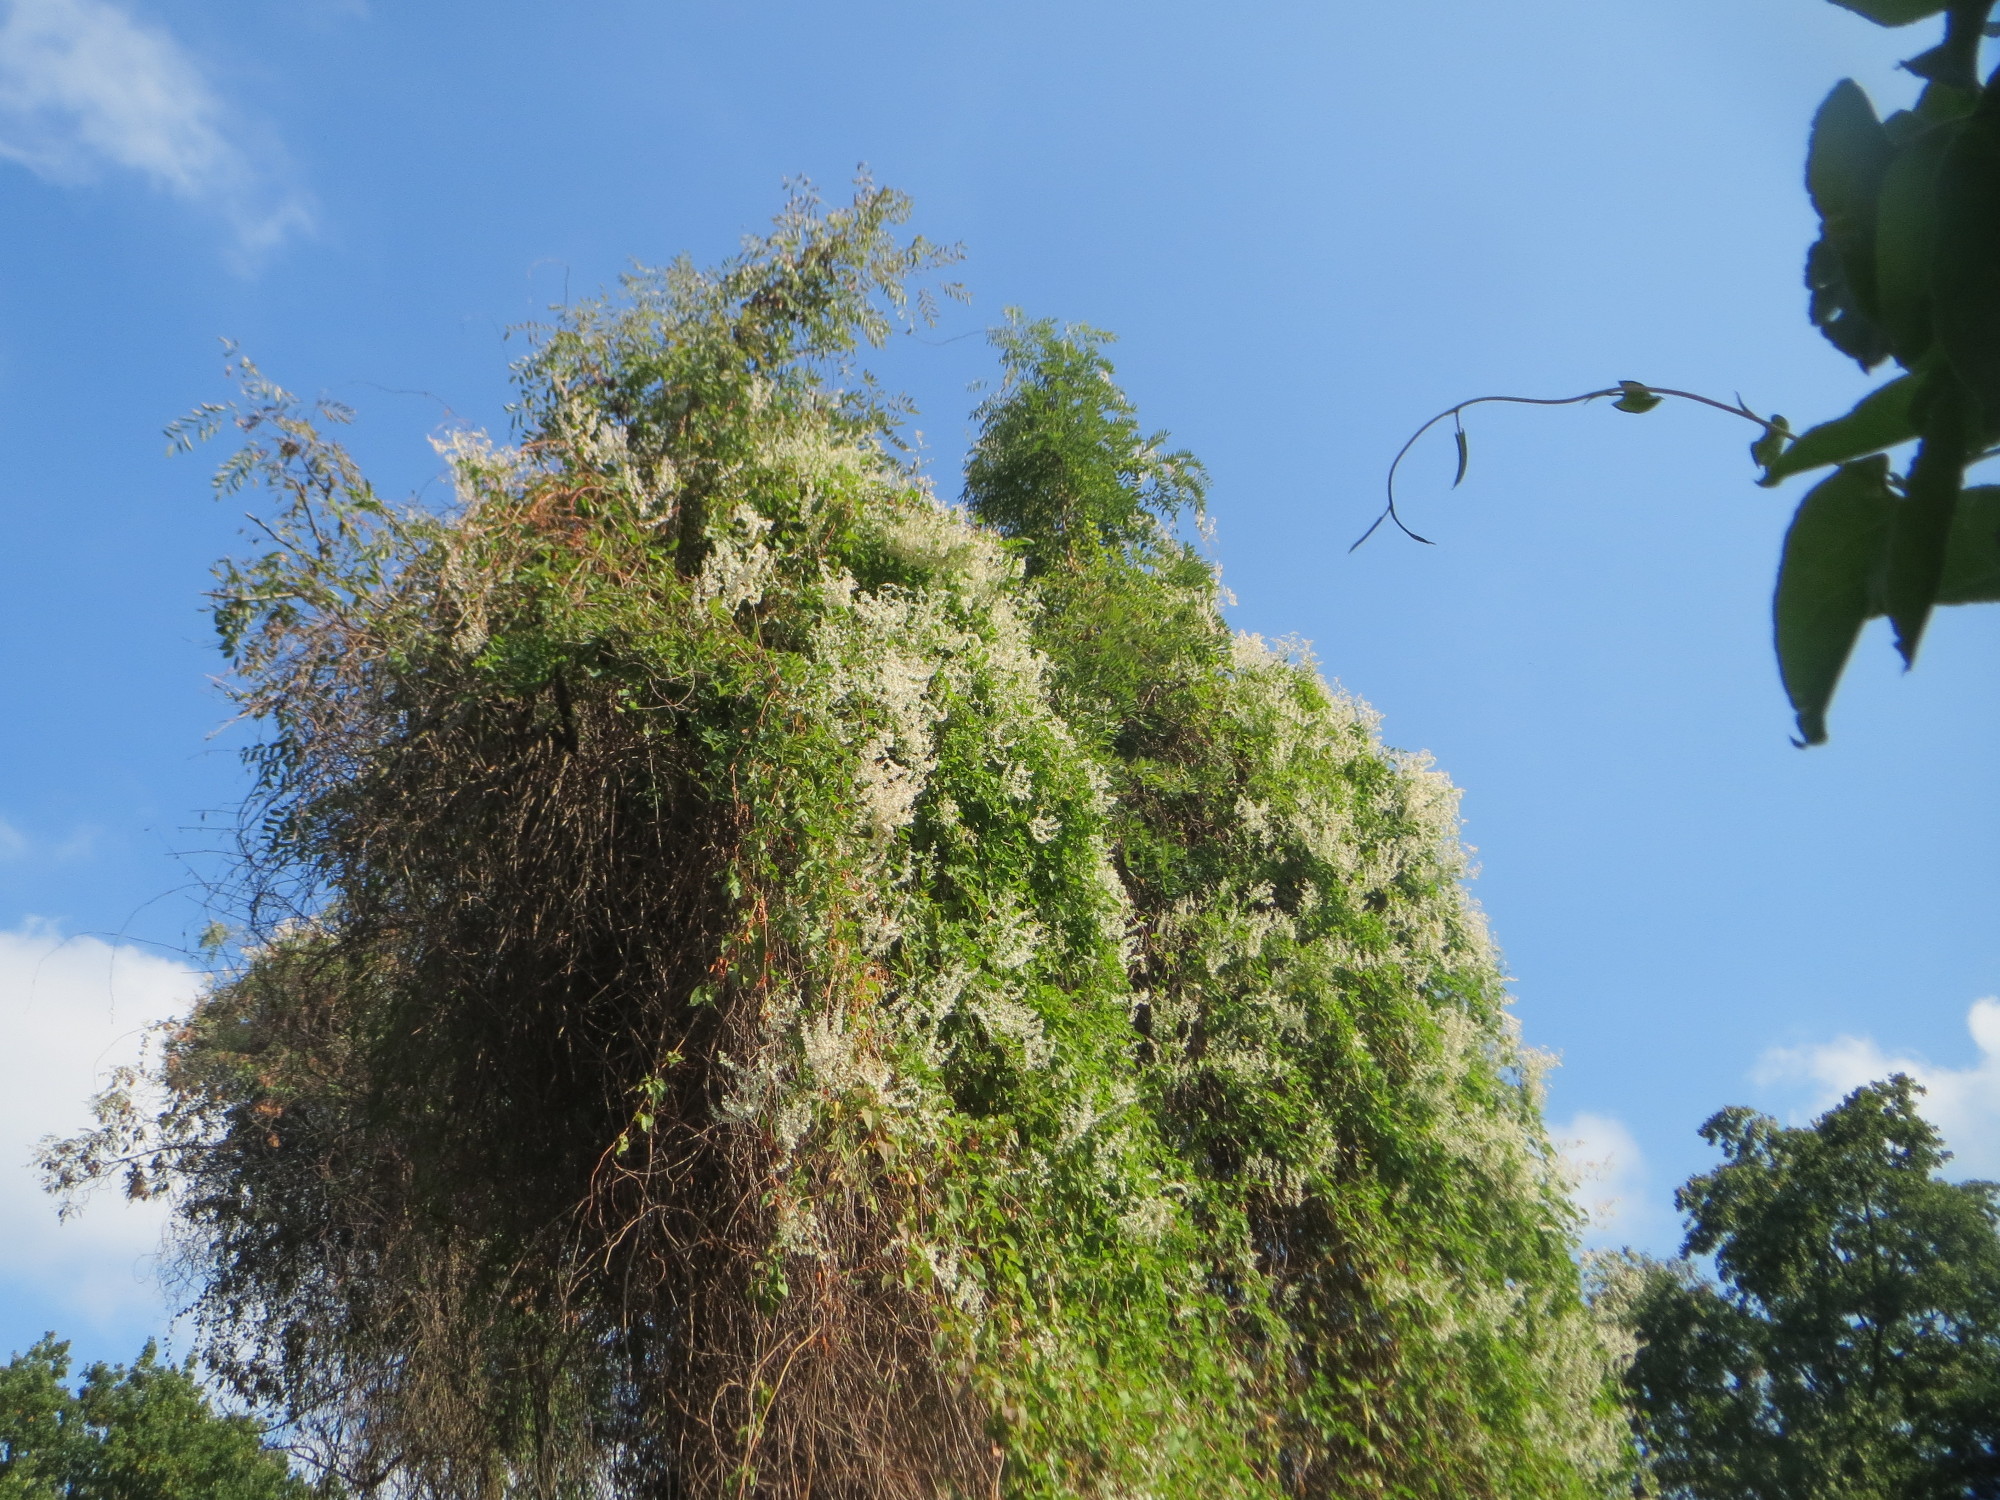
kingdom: Plantae
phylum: Tracheophyta
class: Magnoliopsida
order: Caryophyllales
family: Polygonaceae
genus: Fallopia
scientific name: Fallopia baldschuanica
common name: Russian-vine
